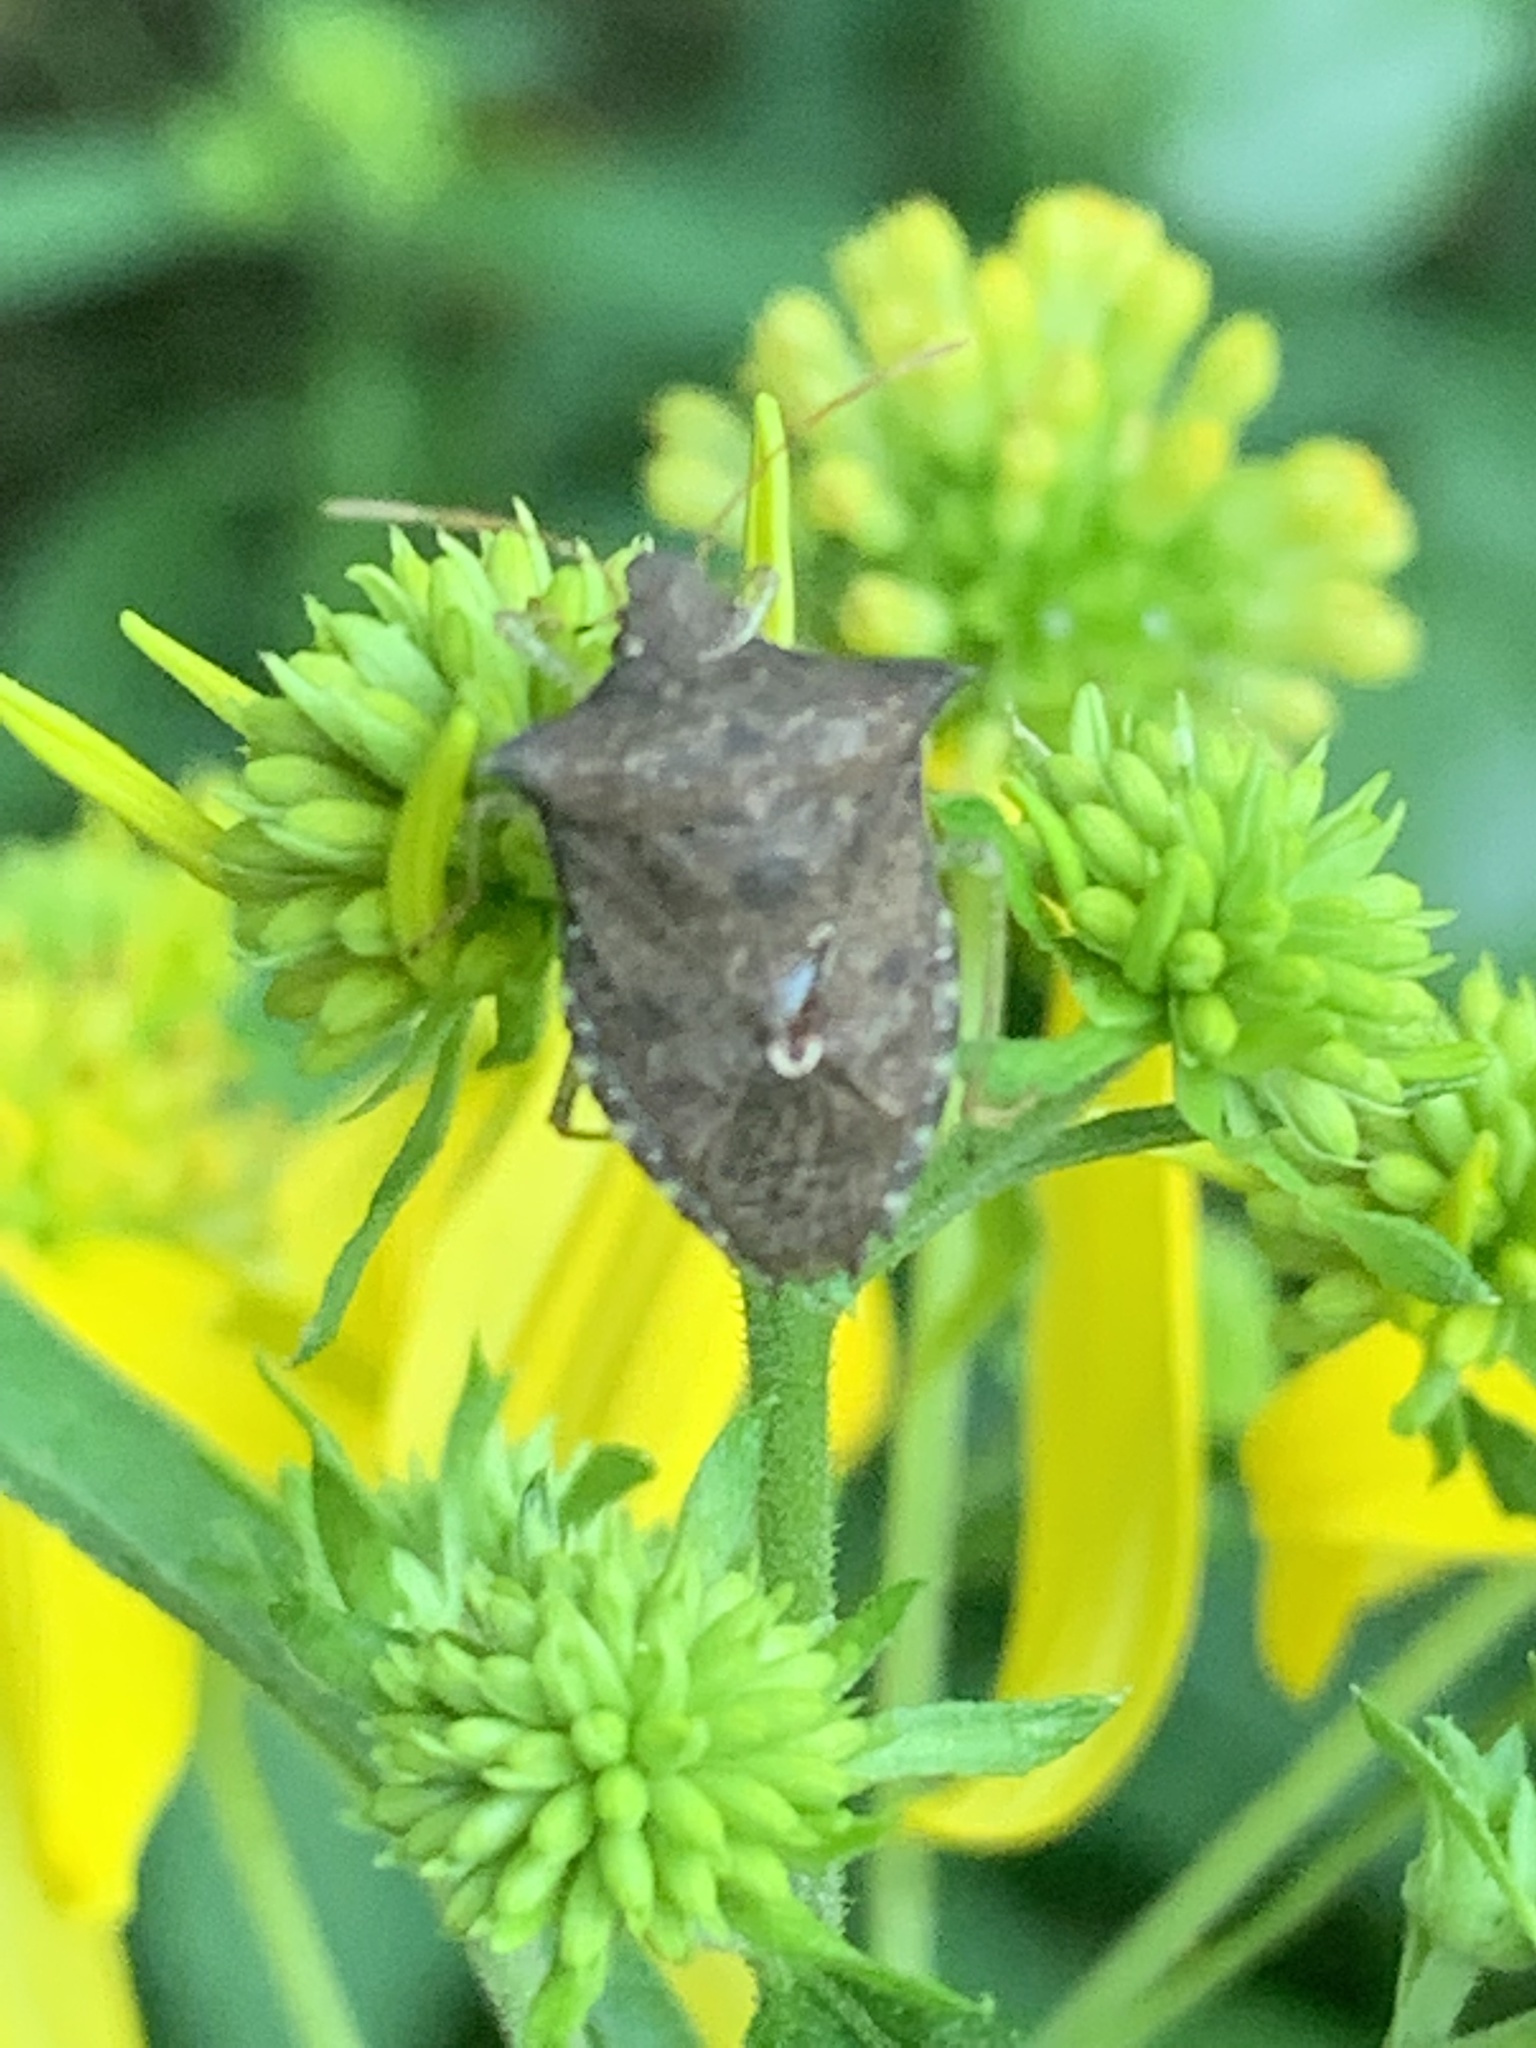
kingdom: Animalia
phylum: Arthropoda
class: Insecta
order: Hemiptera
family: Pentatomidae
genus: Euschistus
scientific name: Euschistus
